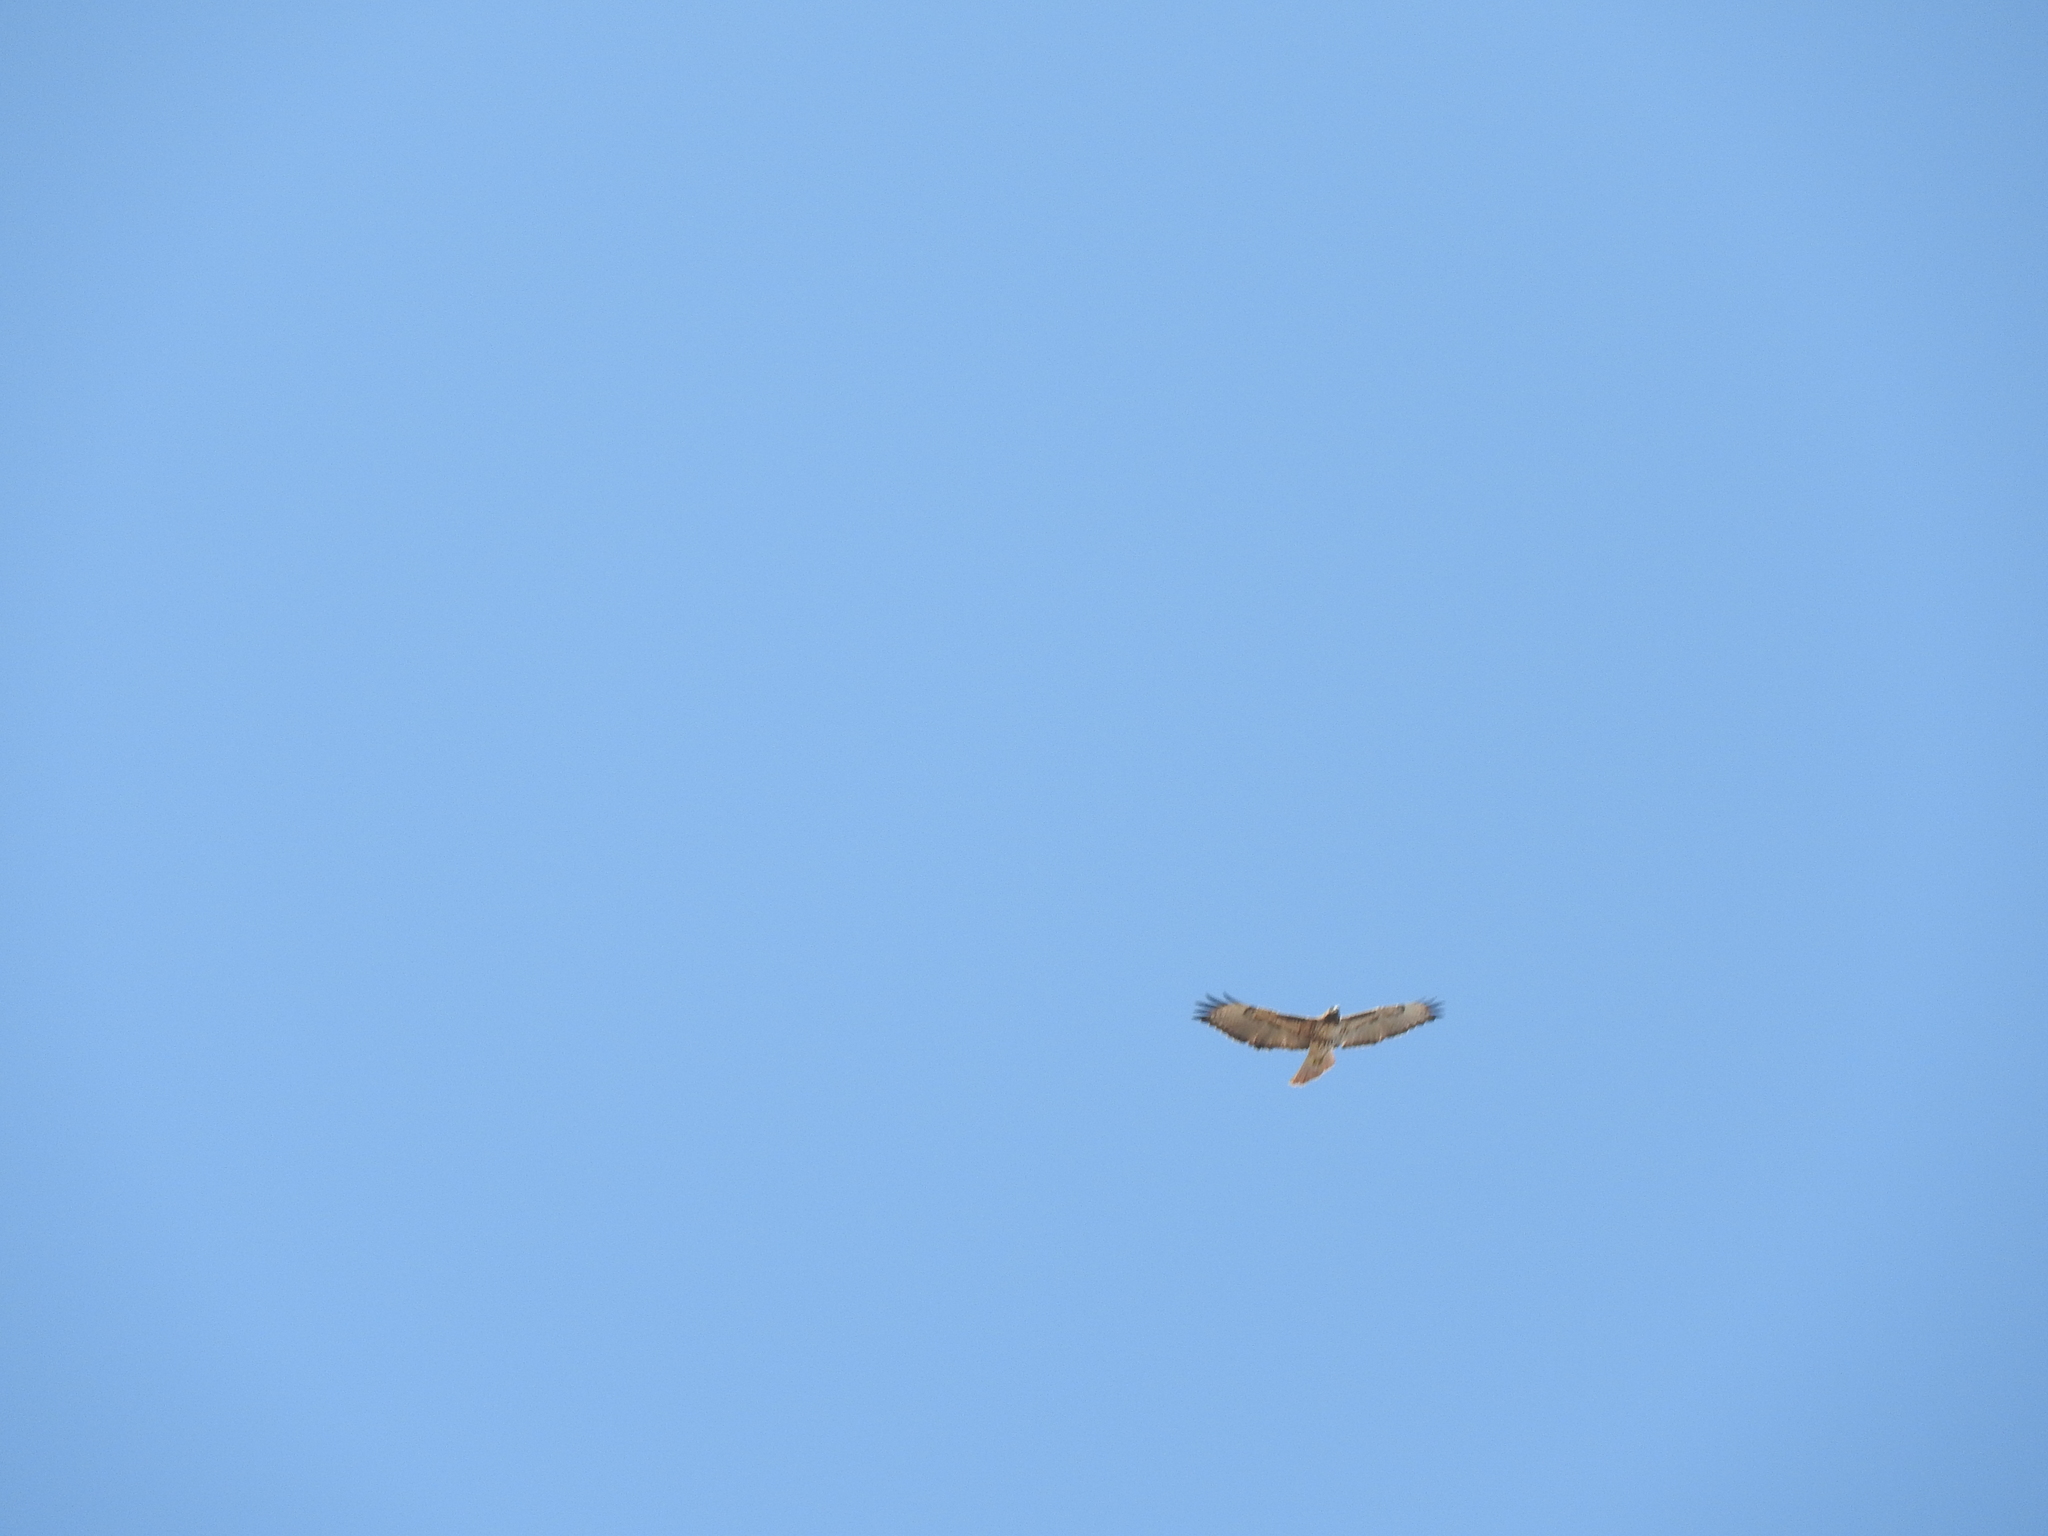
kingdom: Animalia
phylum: Chordata
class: Aves
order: Accipitriformes
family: Accipitridae
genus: Buteo
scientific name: Buteo jamaicensis
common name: Red-tailed hawk
